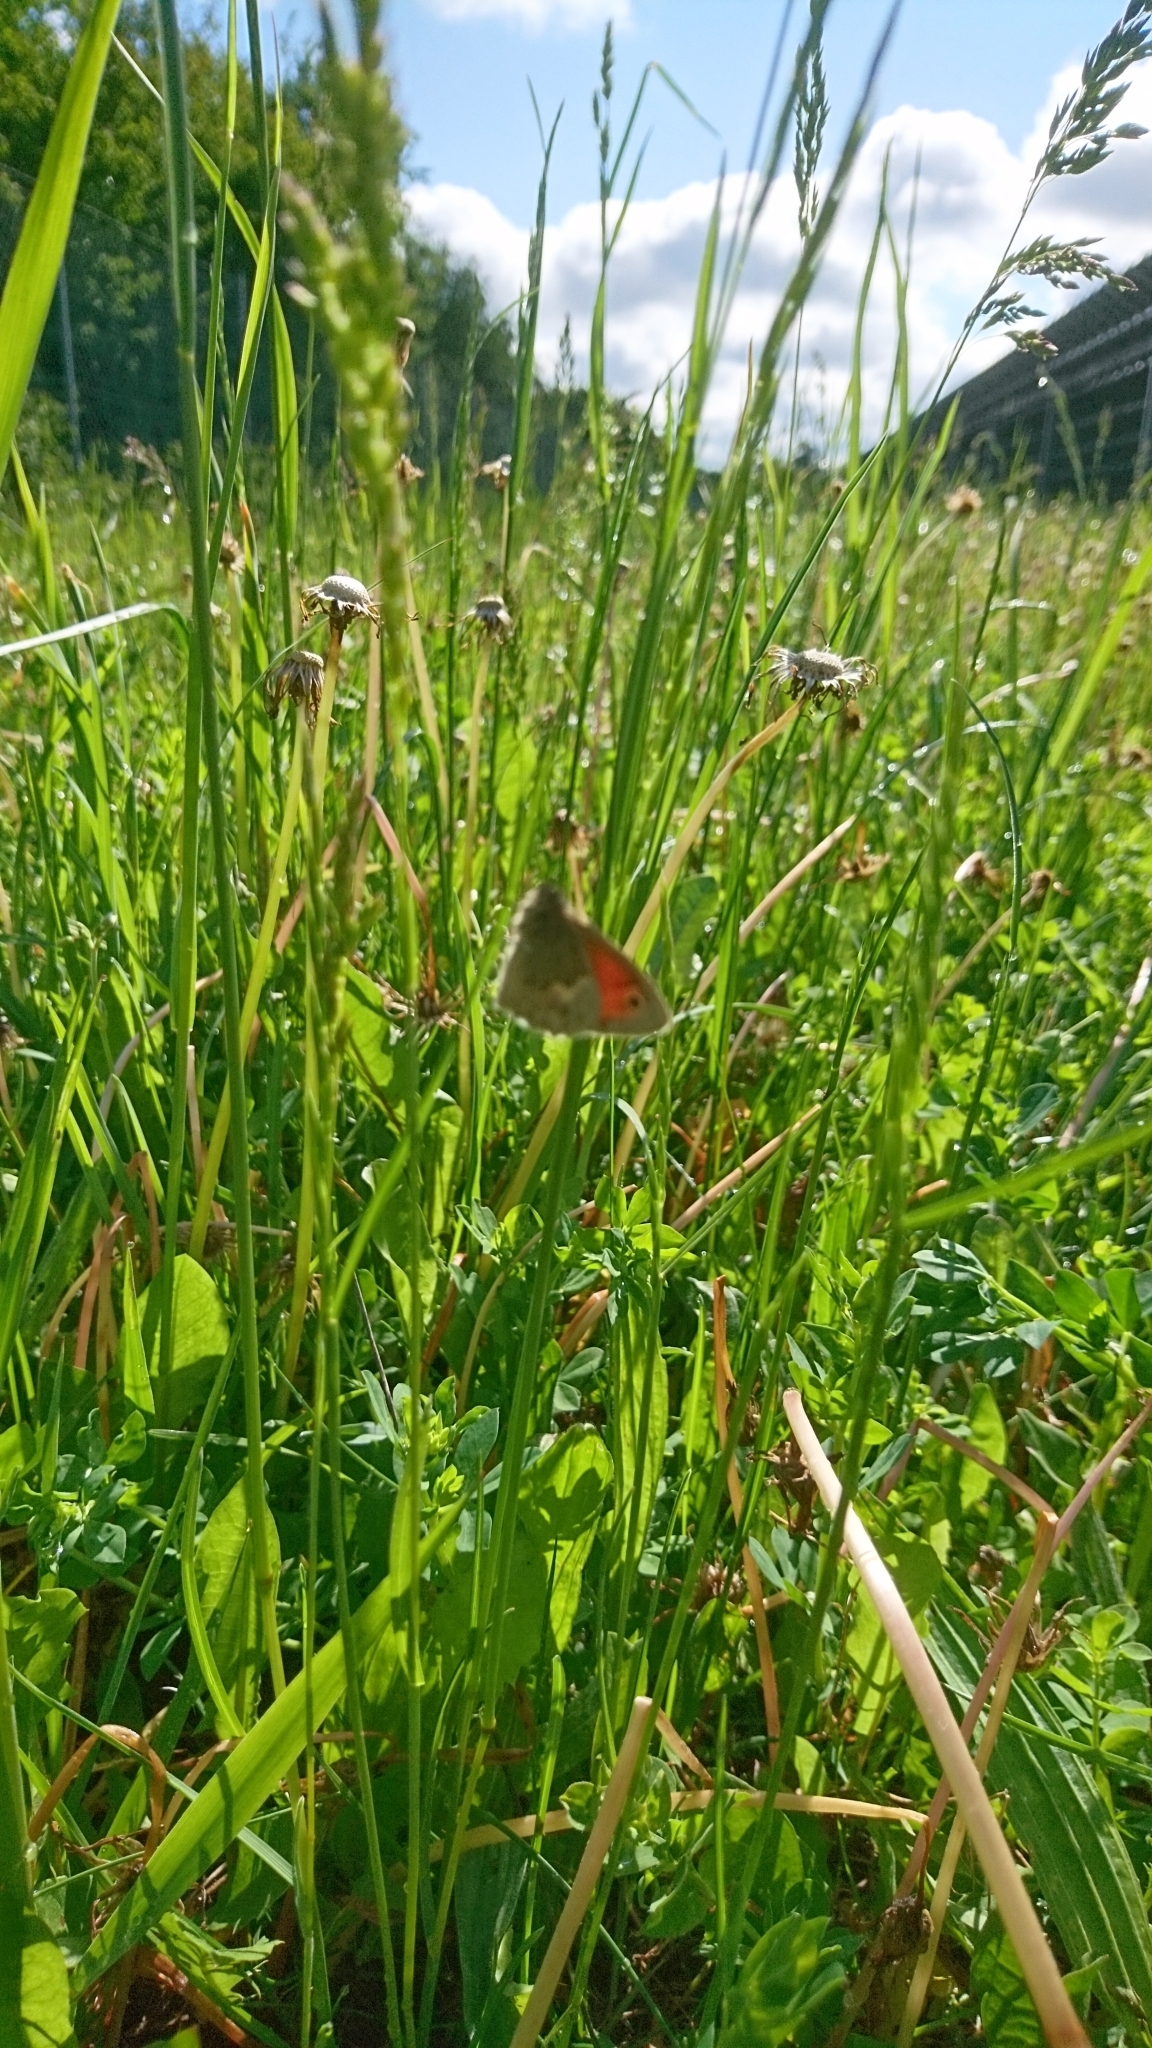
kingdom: Animalia
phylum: Arthropoda
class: Insecta
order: Lepidoptera
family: Nymphalidae
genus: Coenonympha
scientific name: Coenonympha pamphilus
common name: Small heath
